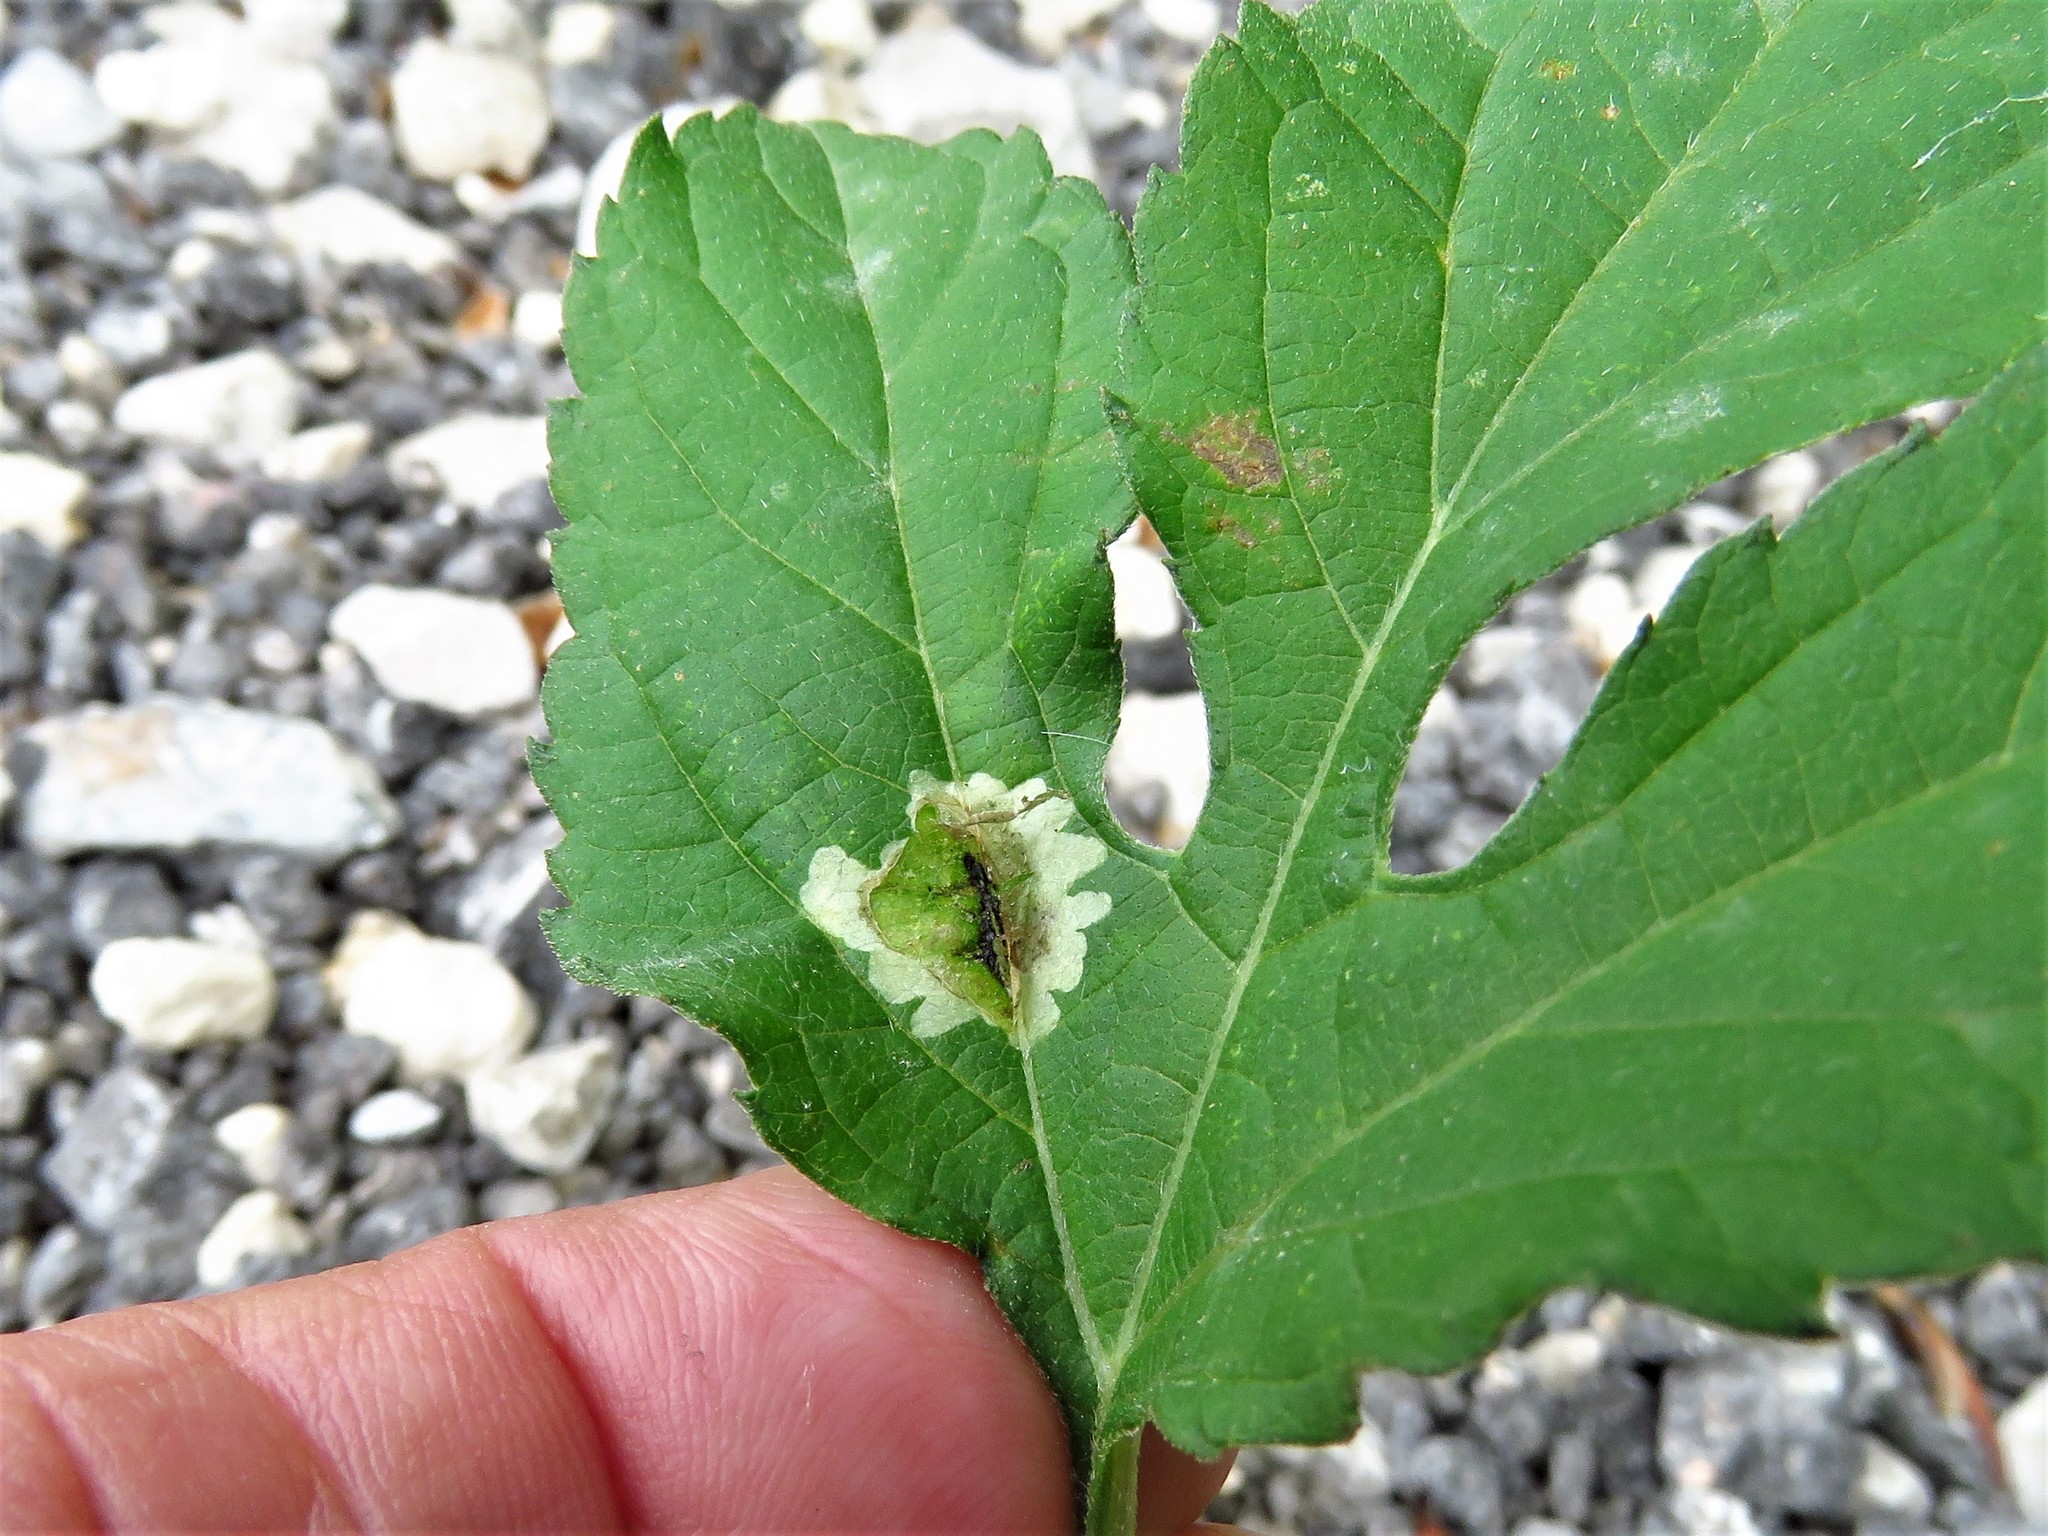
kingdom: Animalia
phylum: Arthropoda
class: Insecta
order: Diptera
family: Agromyzidae
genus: Calycomyza
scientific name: Calycomyza platyptera
